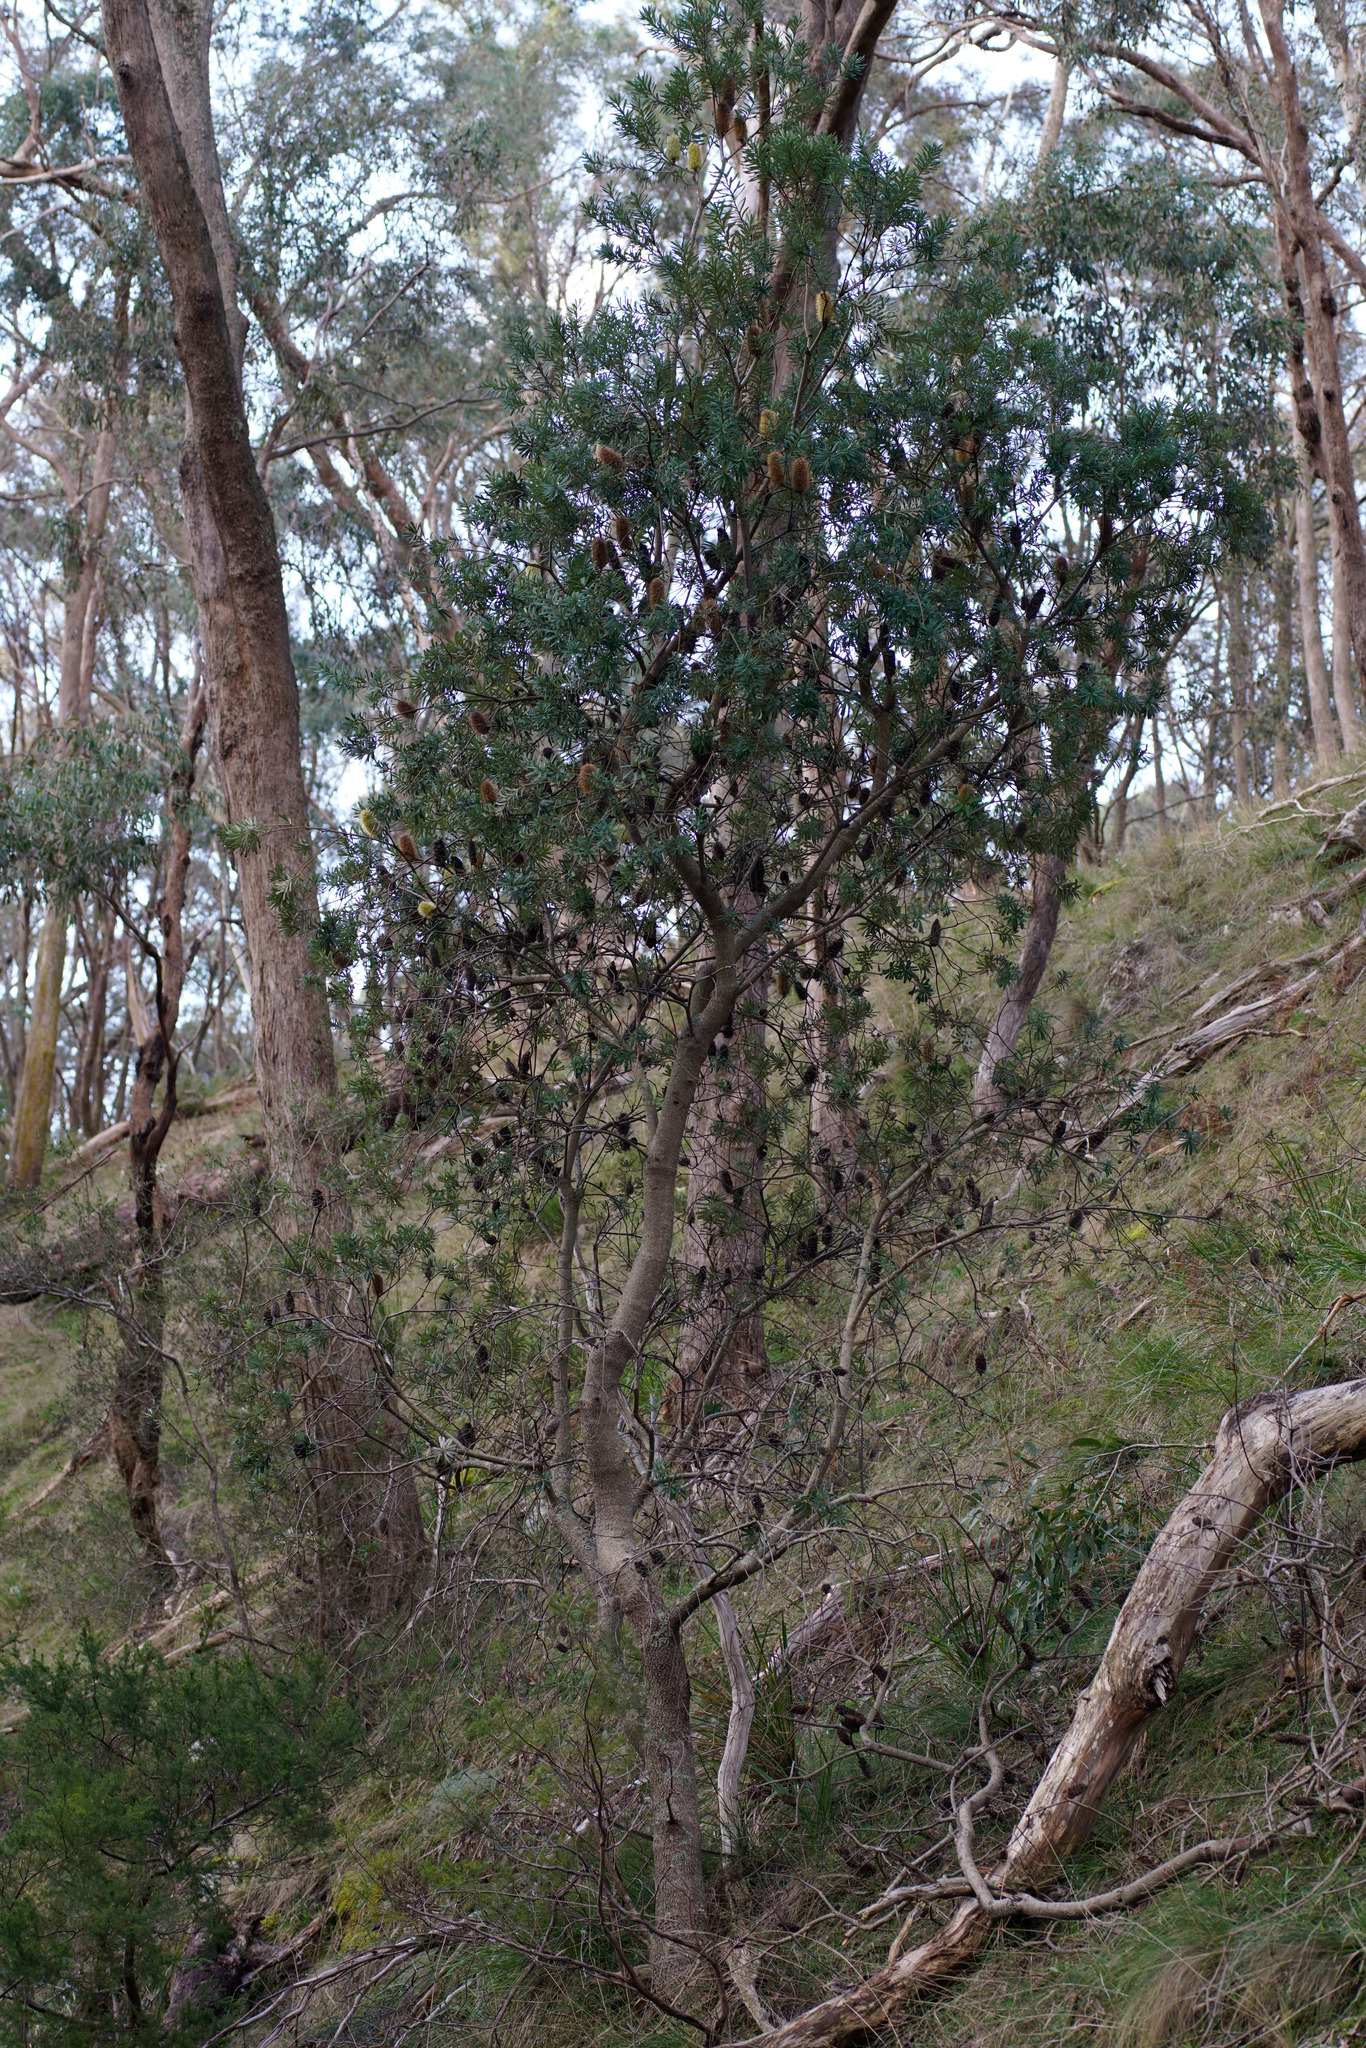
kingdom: Plantae
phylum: Tracheophyta
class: Magnoliopsida
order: Proteales
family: Proteaceae
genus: Banksia
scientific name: Banksia marginata
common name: Silver banksia
